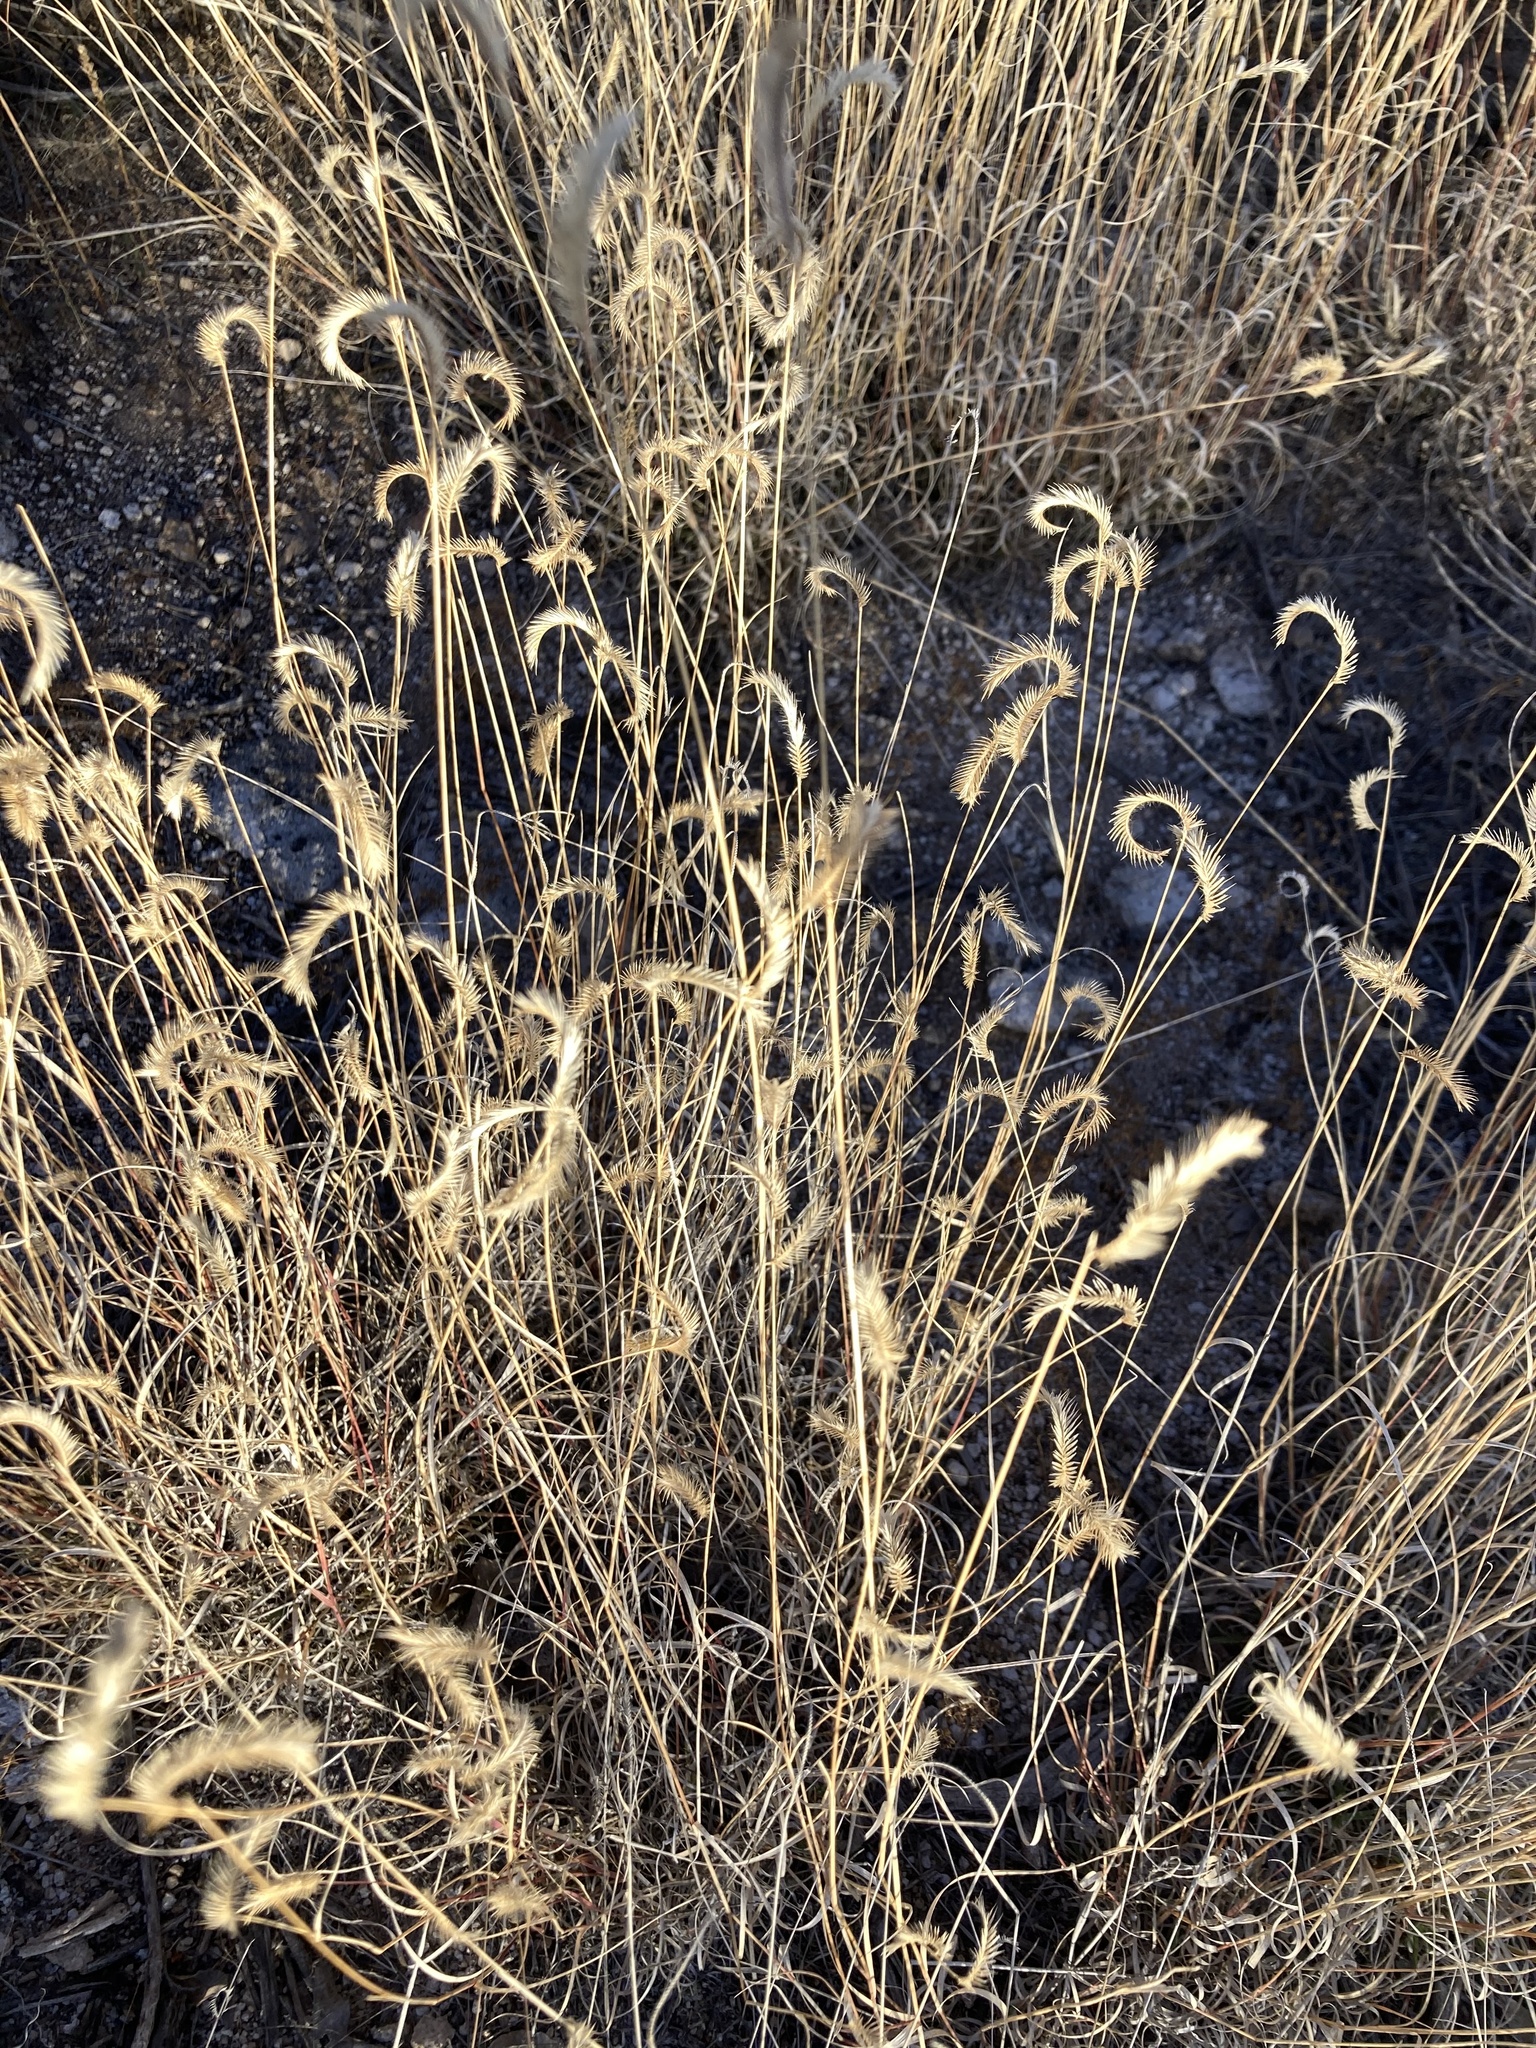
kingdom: Plantae
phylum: Tracheophyta
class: Liliopsida
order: Poales
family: Poaceae
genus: Bouteloua
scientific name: Bouteloua gracilis
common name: Blue grama
